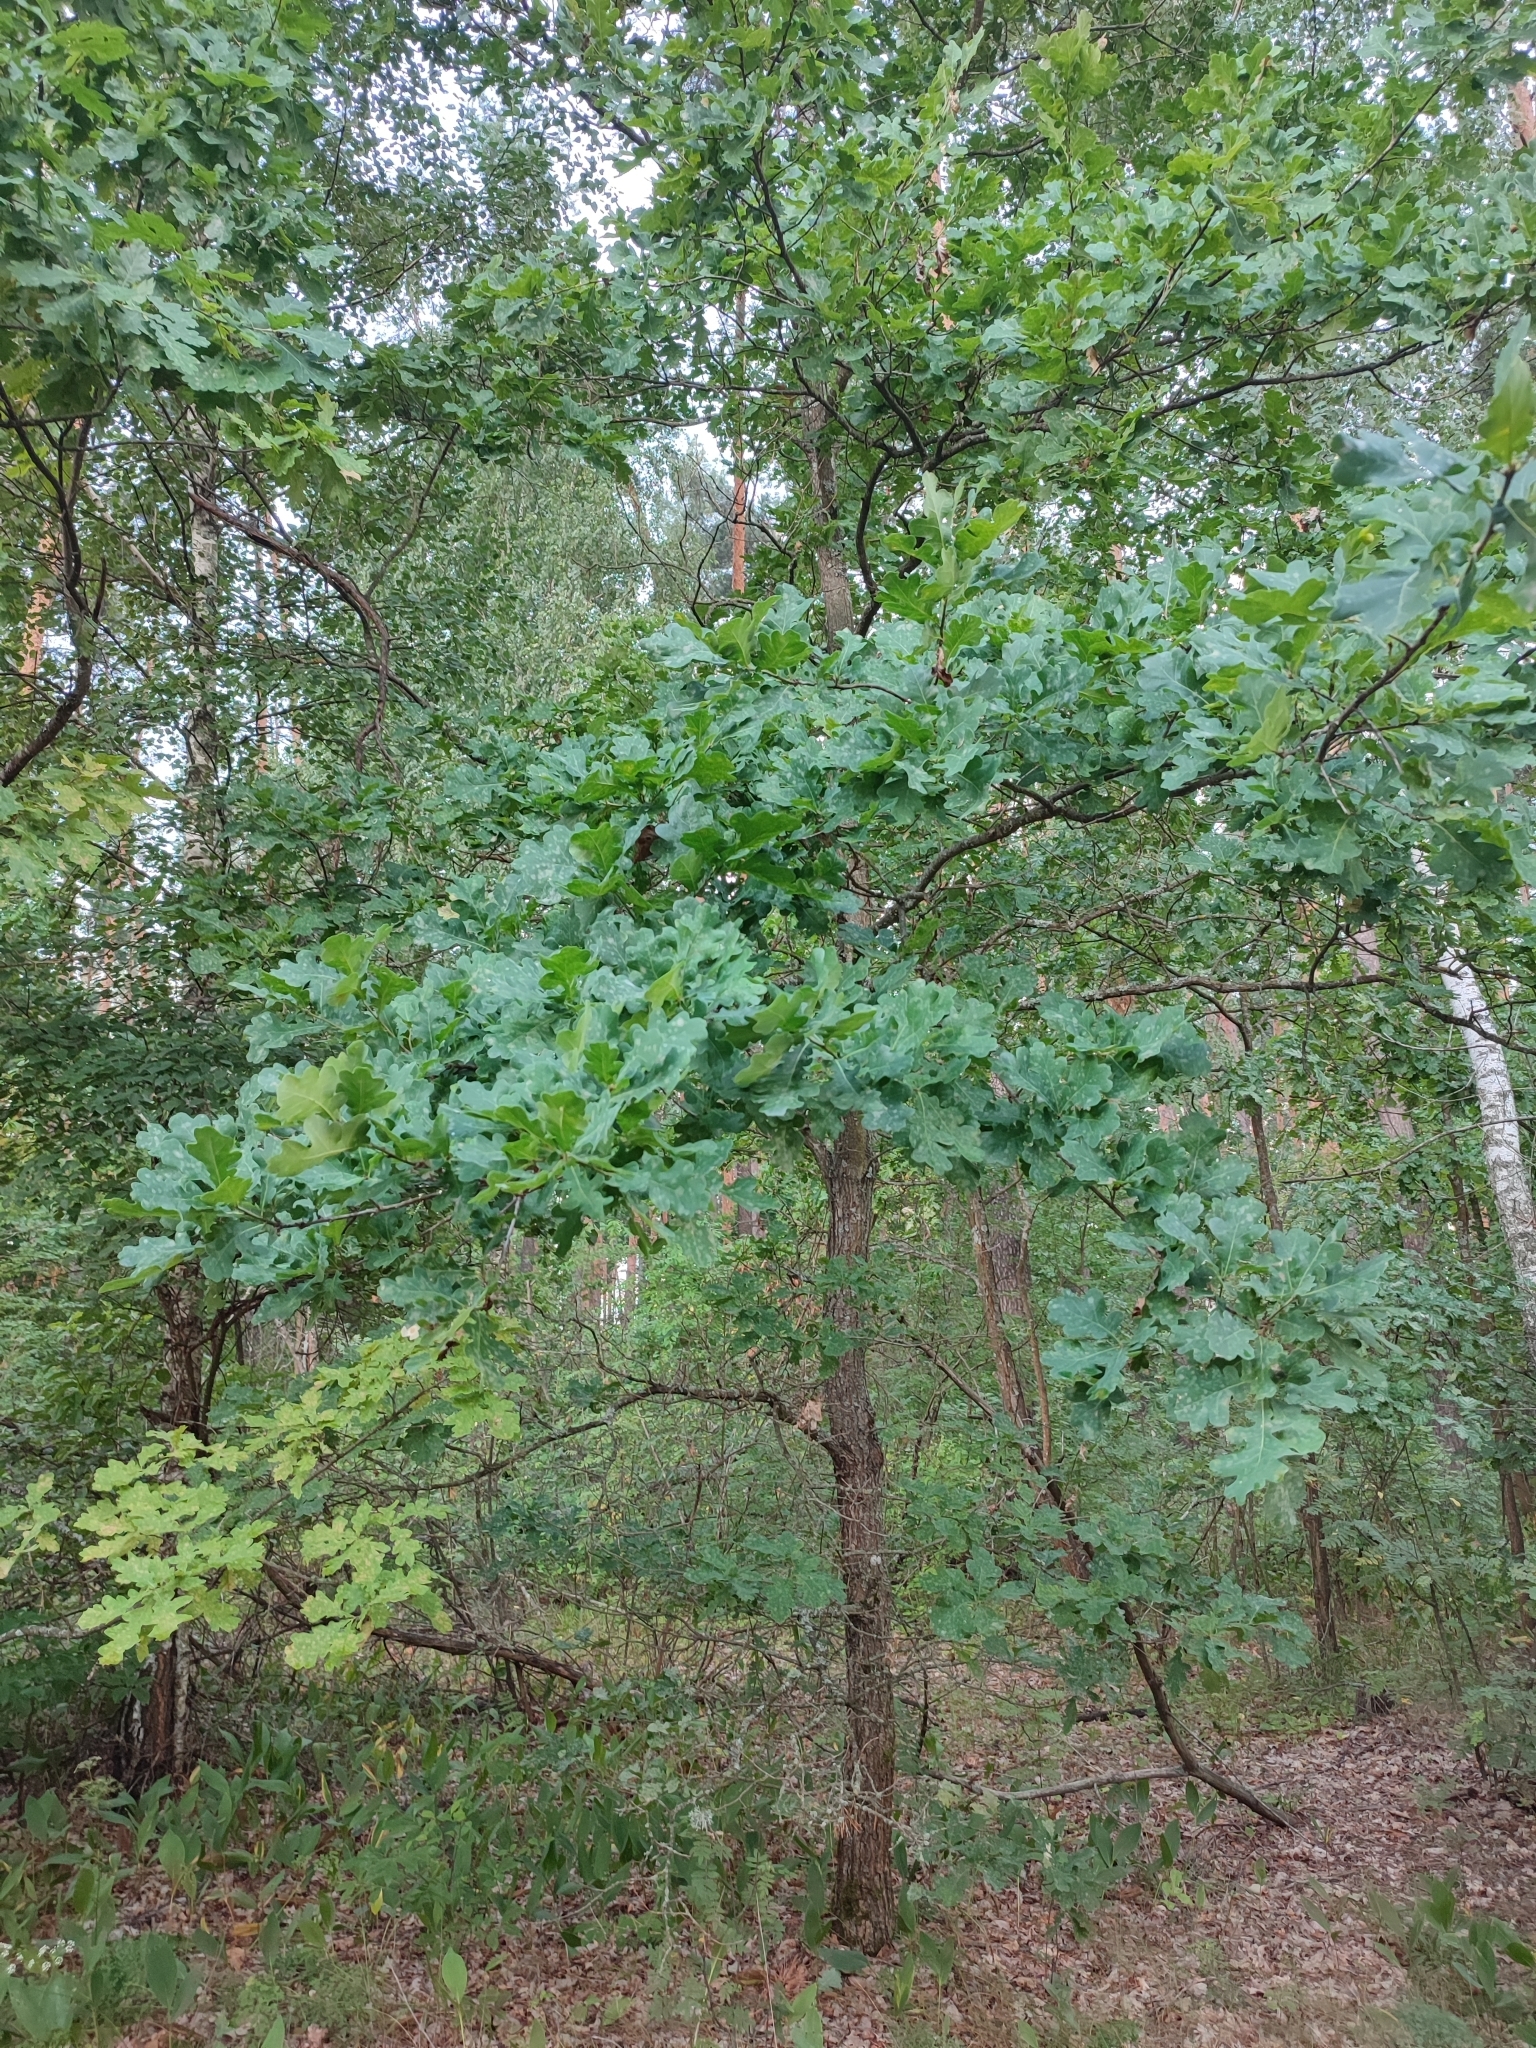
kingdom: Plantae
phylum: Tracheophyta
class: Magnoliopsida
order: Fagales
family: Fagaceae
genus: Quercus
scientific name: Quercus robur
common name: Pedunculate oak
